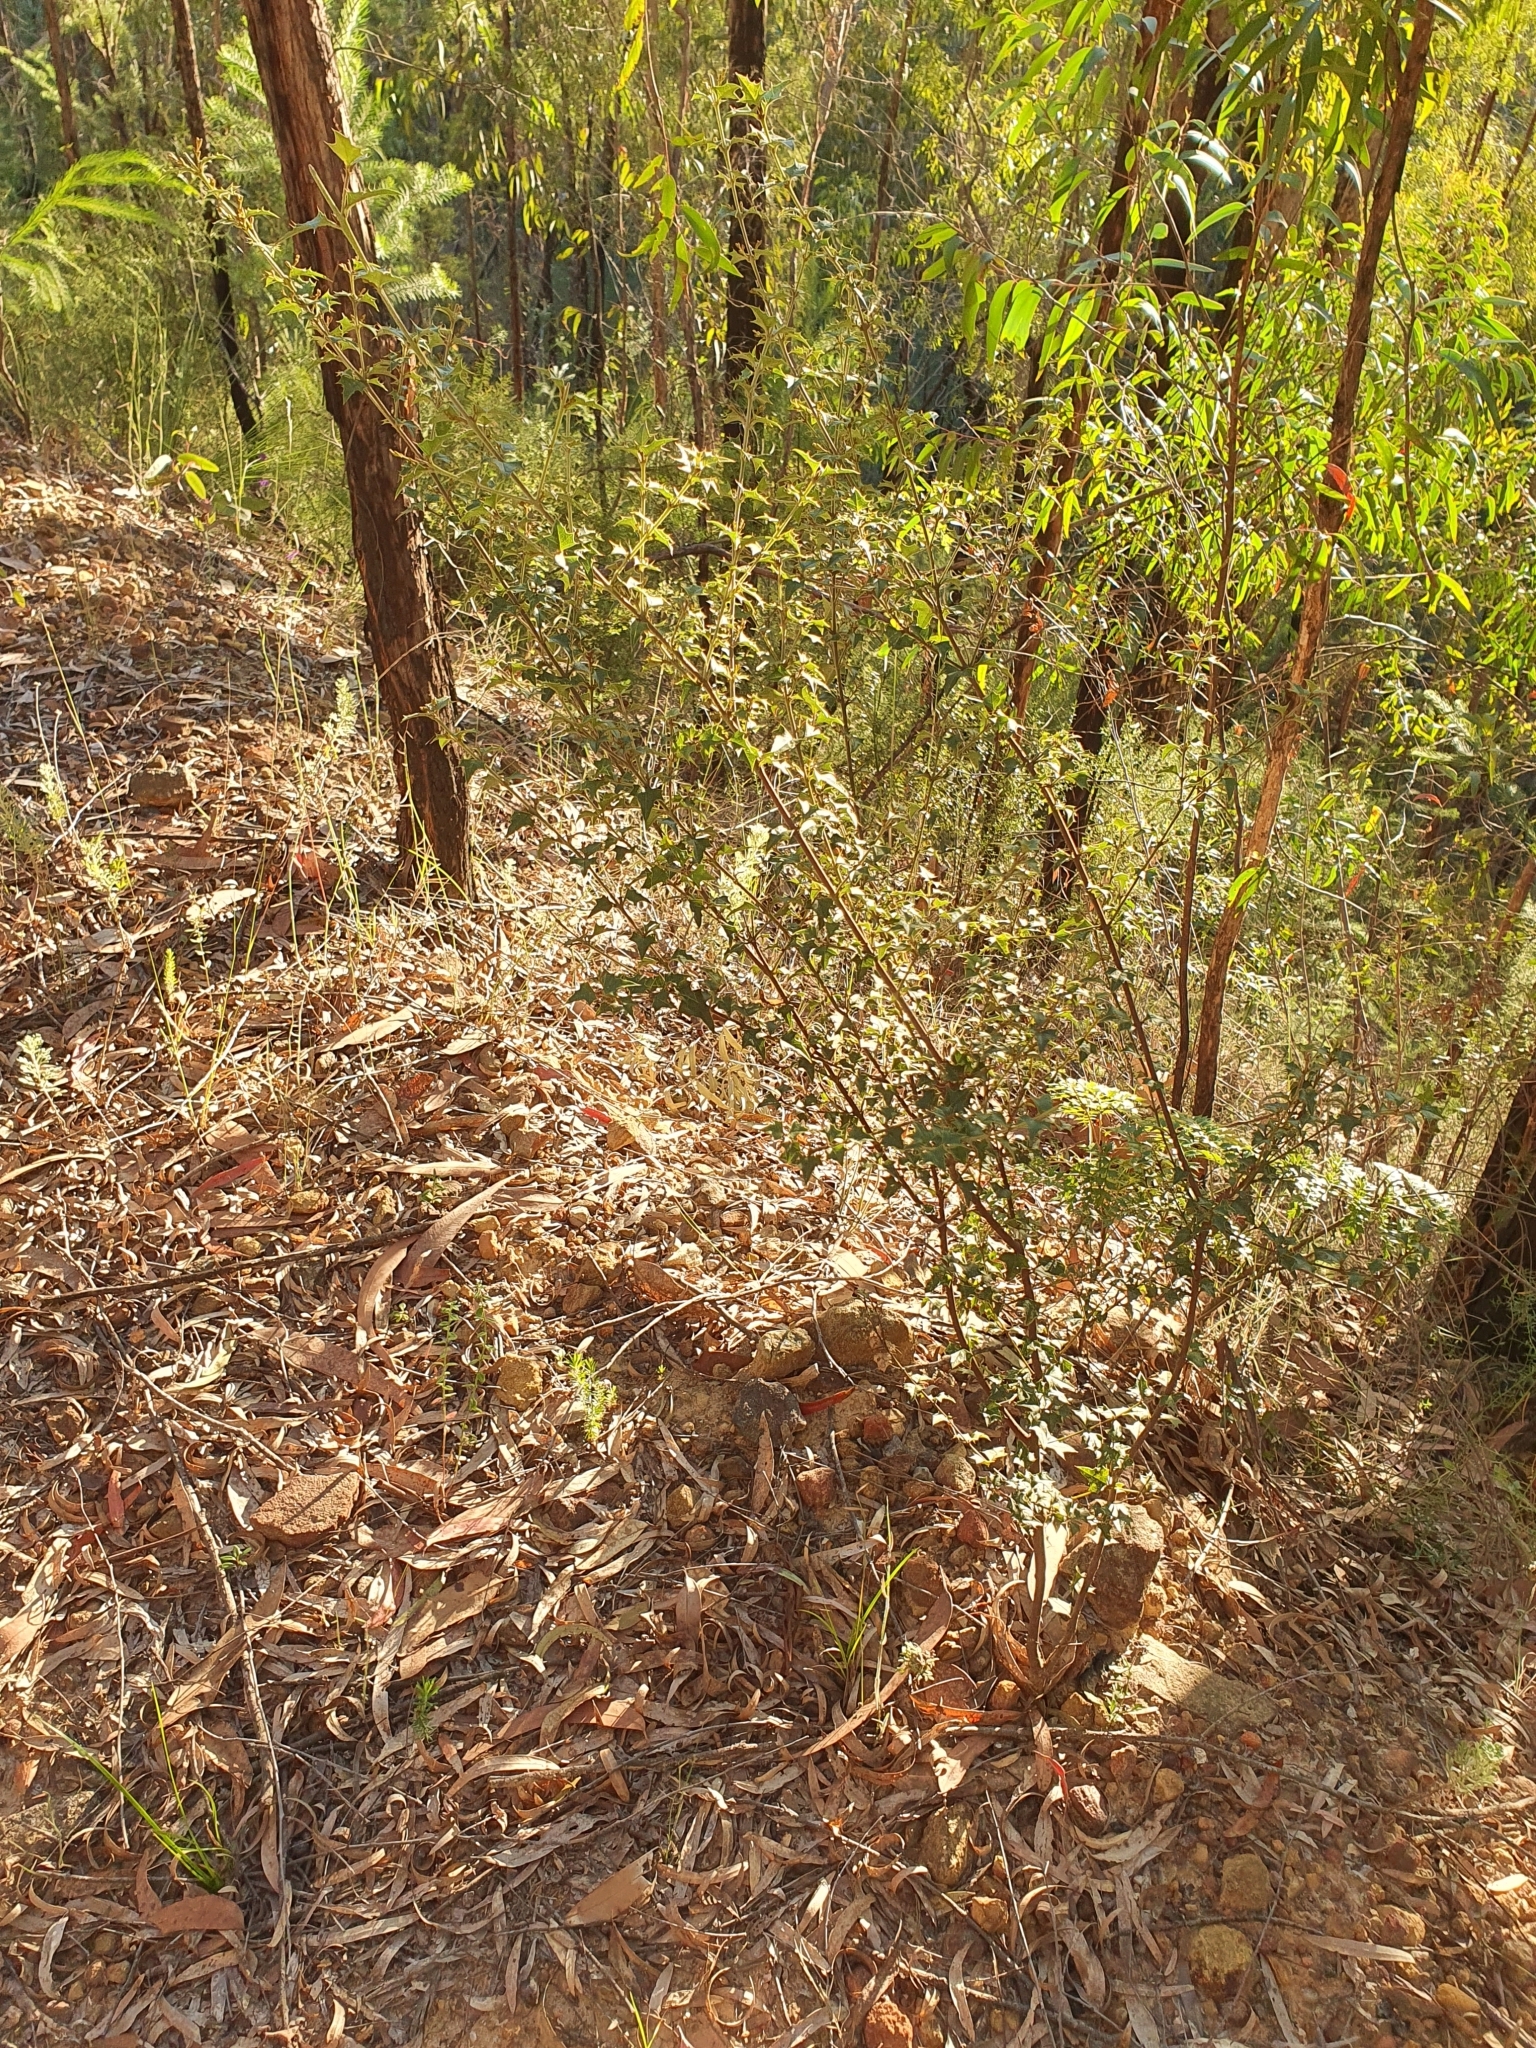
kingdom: Plantae
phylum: Tracheophyta
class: Magnoliopsida
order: Fabales
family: Fabaceae
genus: Podolobium
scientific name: Podolobium ilicifolium
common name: Native holly
